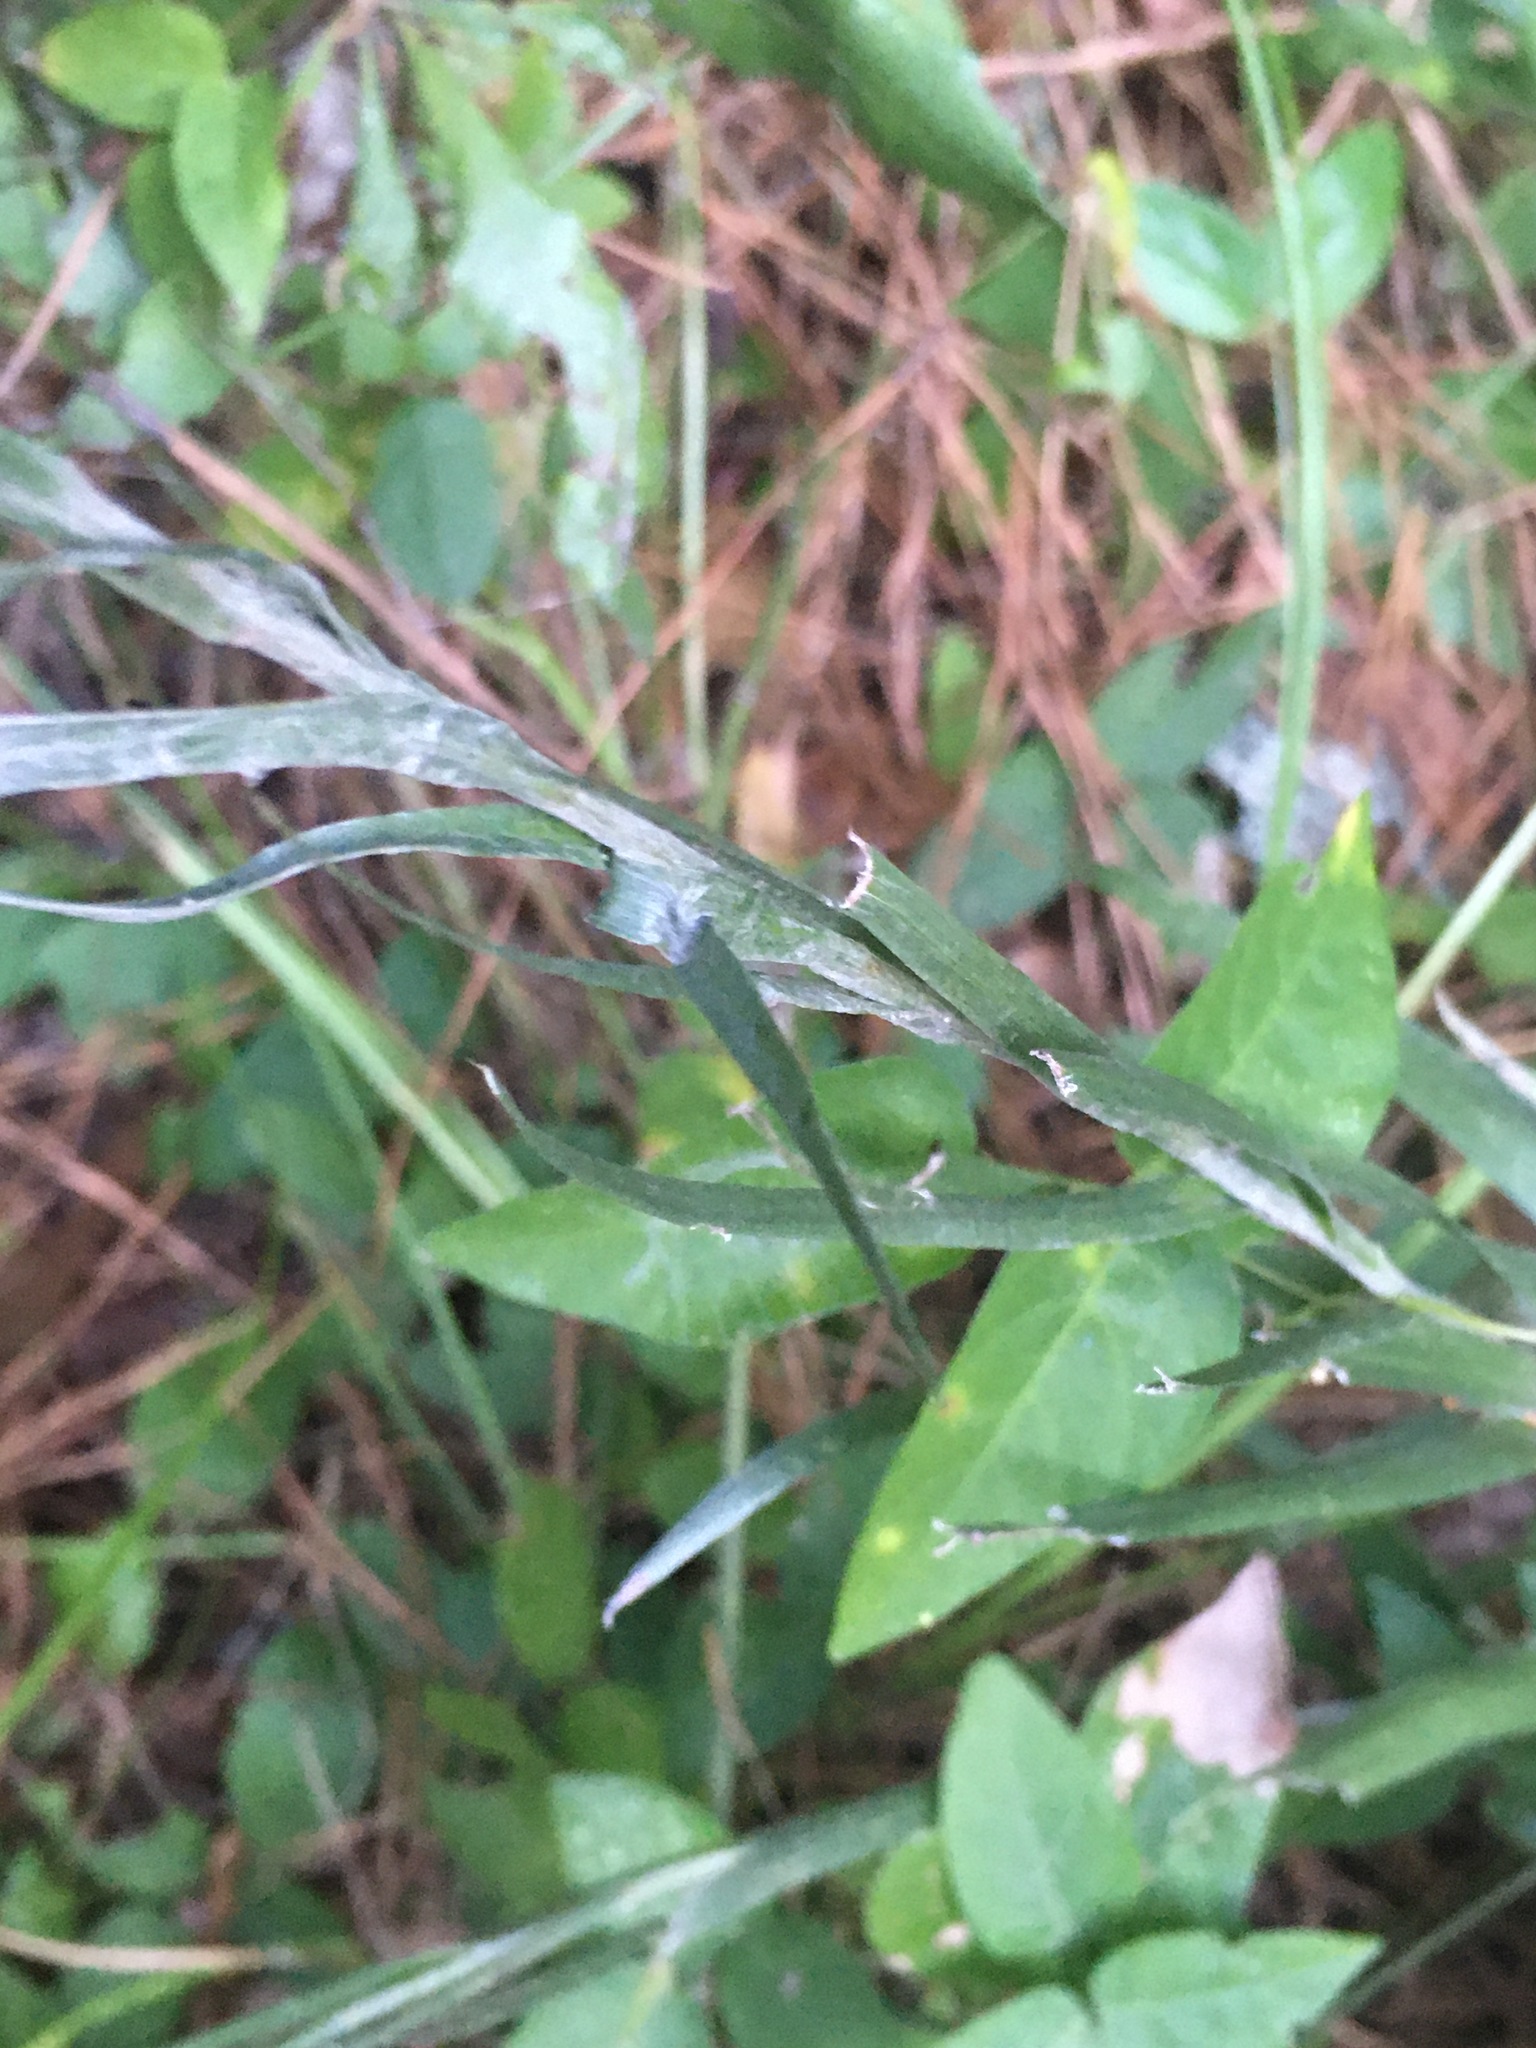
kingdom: Plantae
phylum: Tracheophyta
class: Magnoliopsida
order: Asterales
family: Asteraceae
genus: Pityopsis
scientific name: Pityopsis graminifolia
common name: Grass-leaf golden-aster
